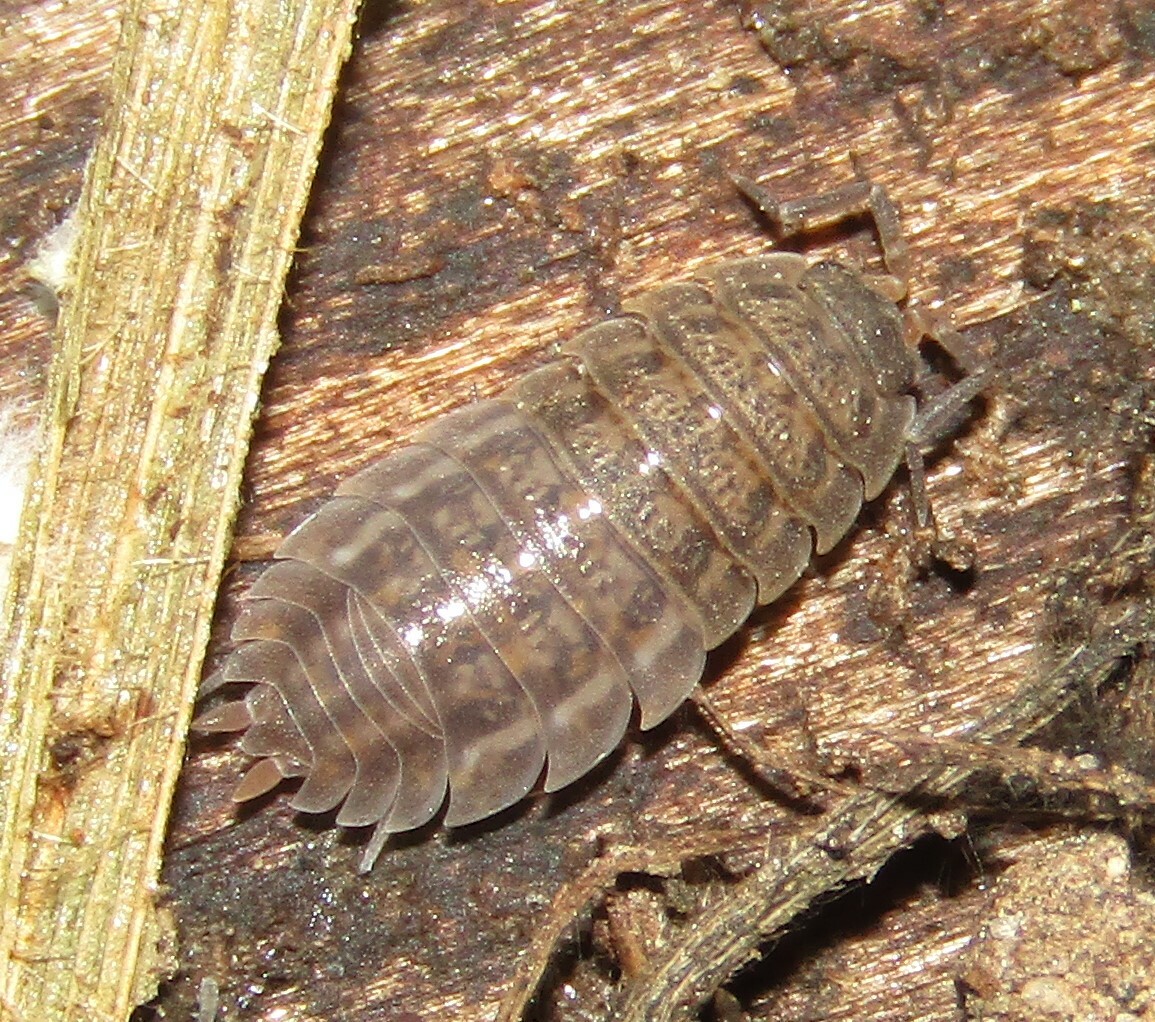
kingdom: Animalia
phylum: Arthropoda
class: Malacostraca
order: Isopoda
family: Trachelipodidae
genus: Trachelipus
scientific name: Trachelipus rathkii
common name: Isopod
